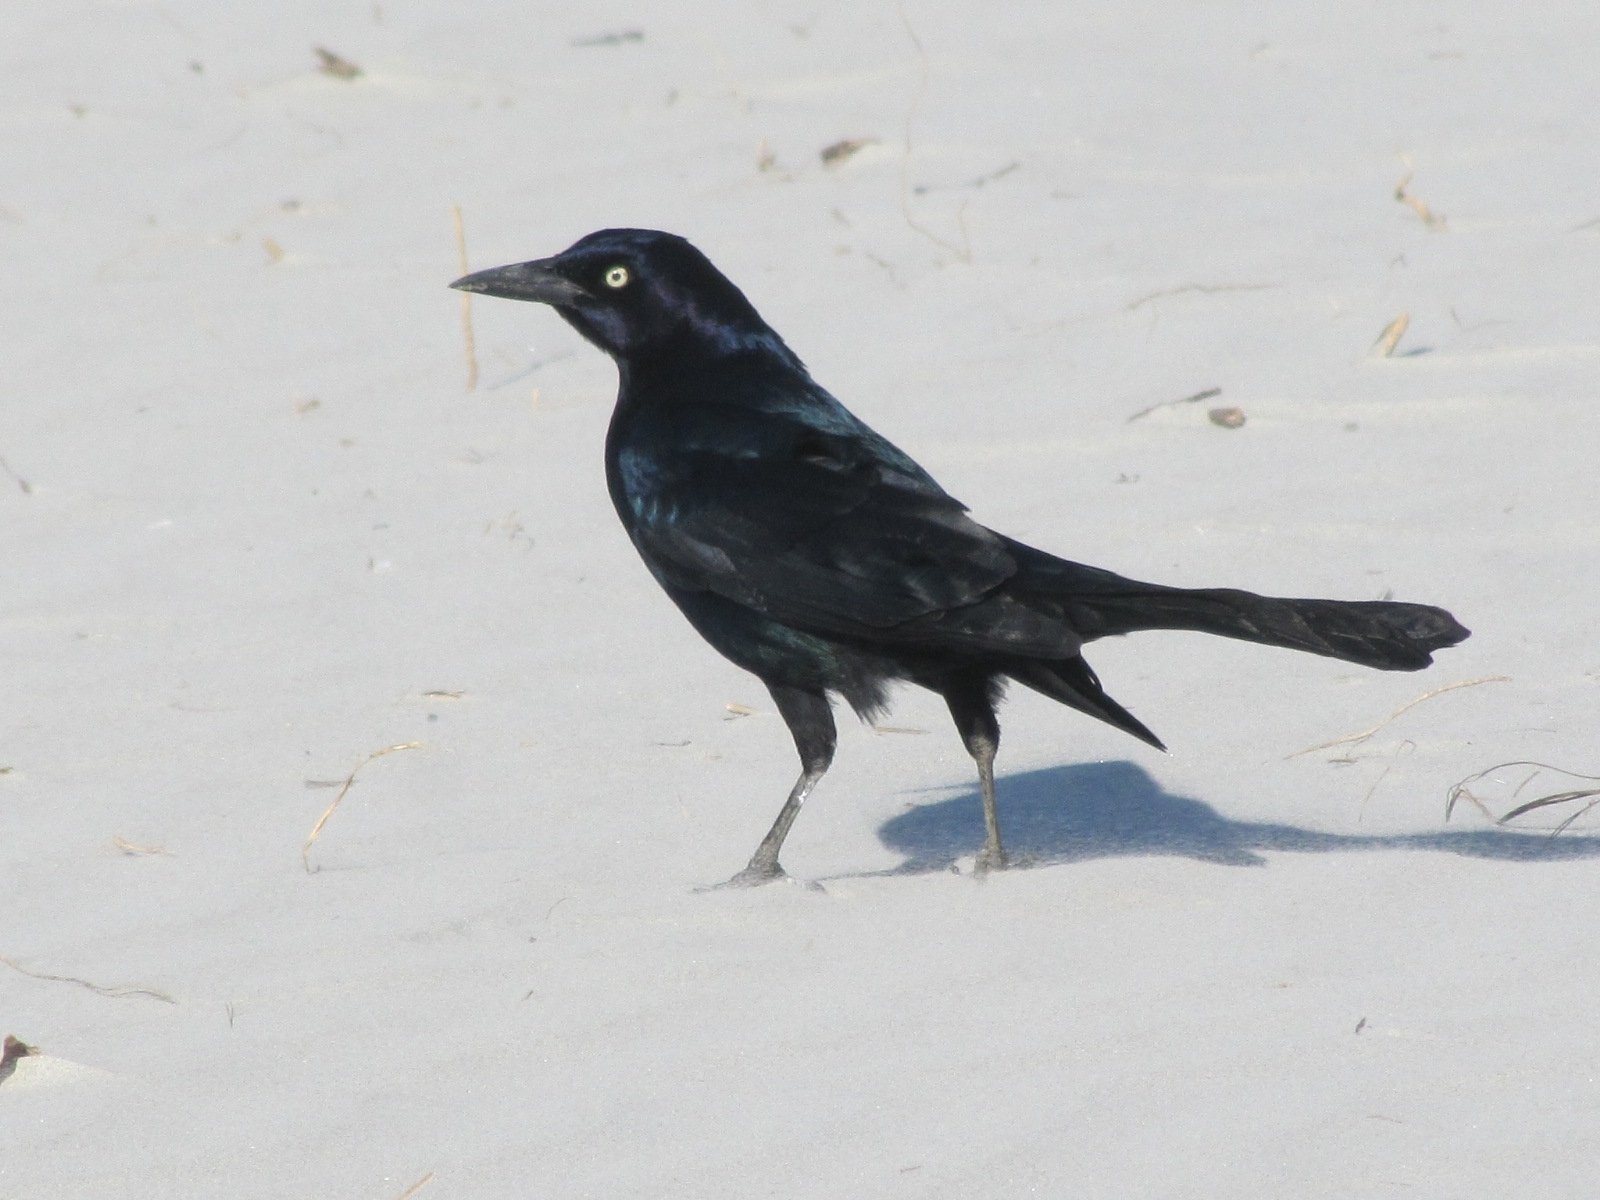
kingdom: Animalia
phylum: Chordata
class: Aves
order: Passeriformes
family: Icteridae
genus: Quiscalus
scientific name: Quiscalus major
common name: Boat-tailed grackle
